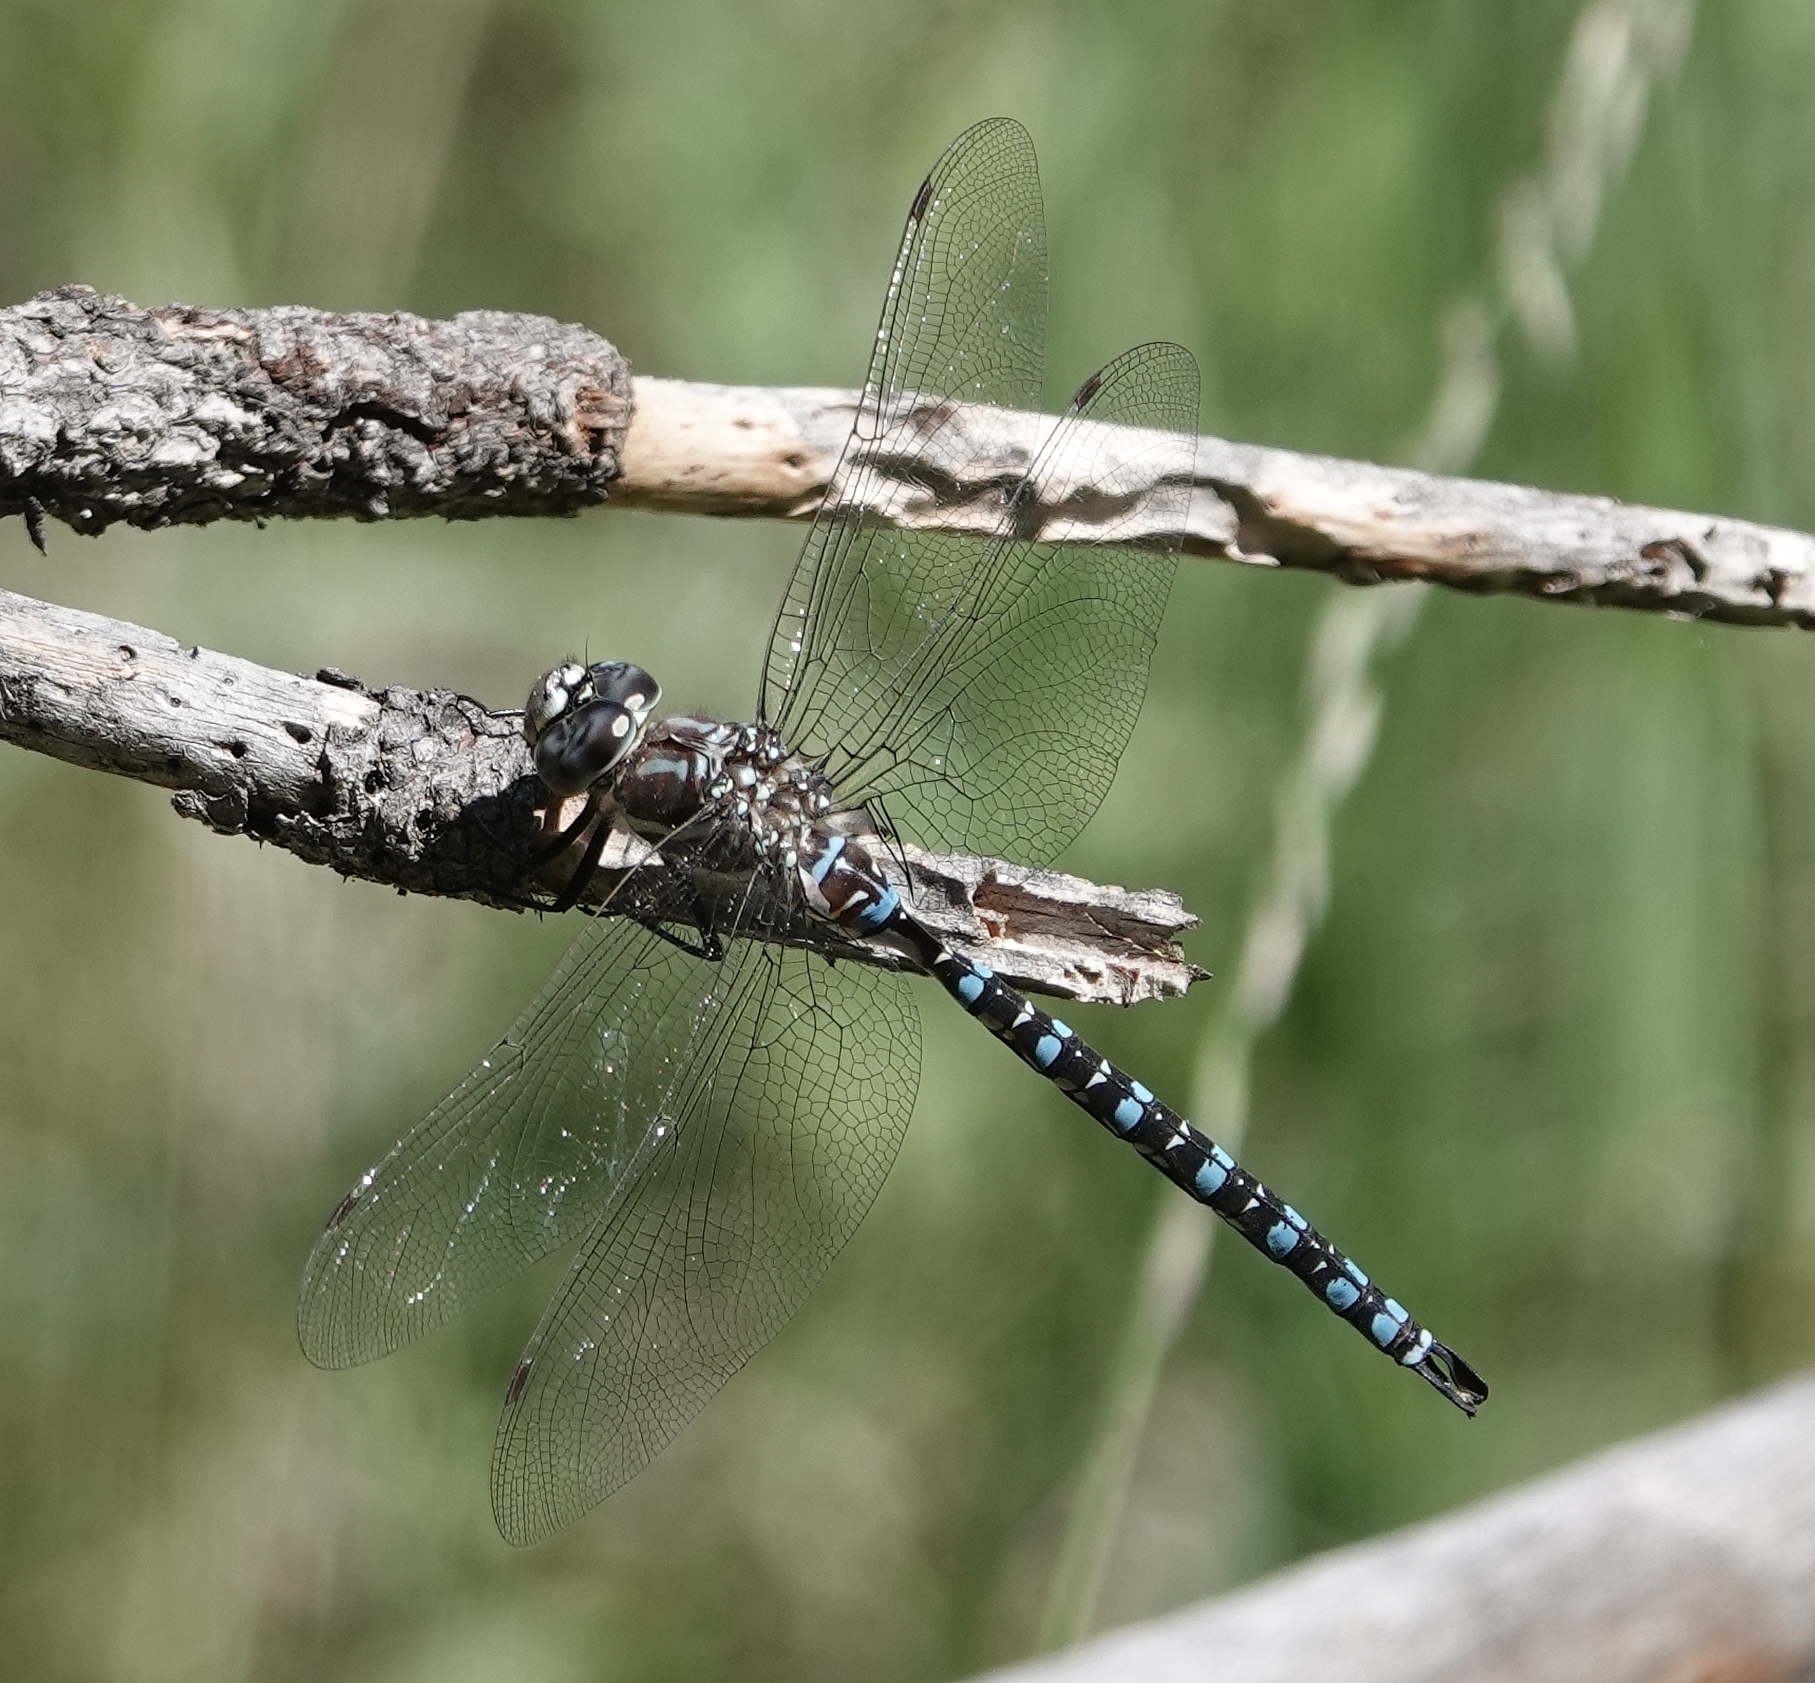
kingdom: Animalia
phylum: Arthropoda
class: Insecta
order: Odonata
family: Aeshnidae
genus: Aeshna
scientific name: Aeshna palmata
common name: Paddle-tailed darner
